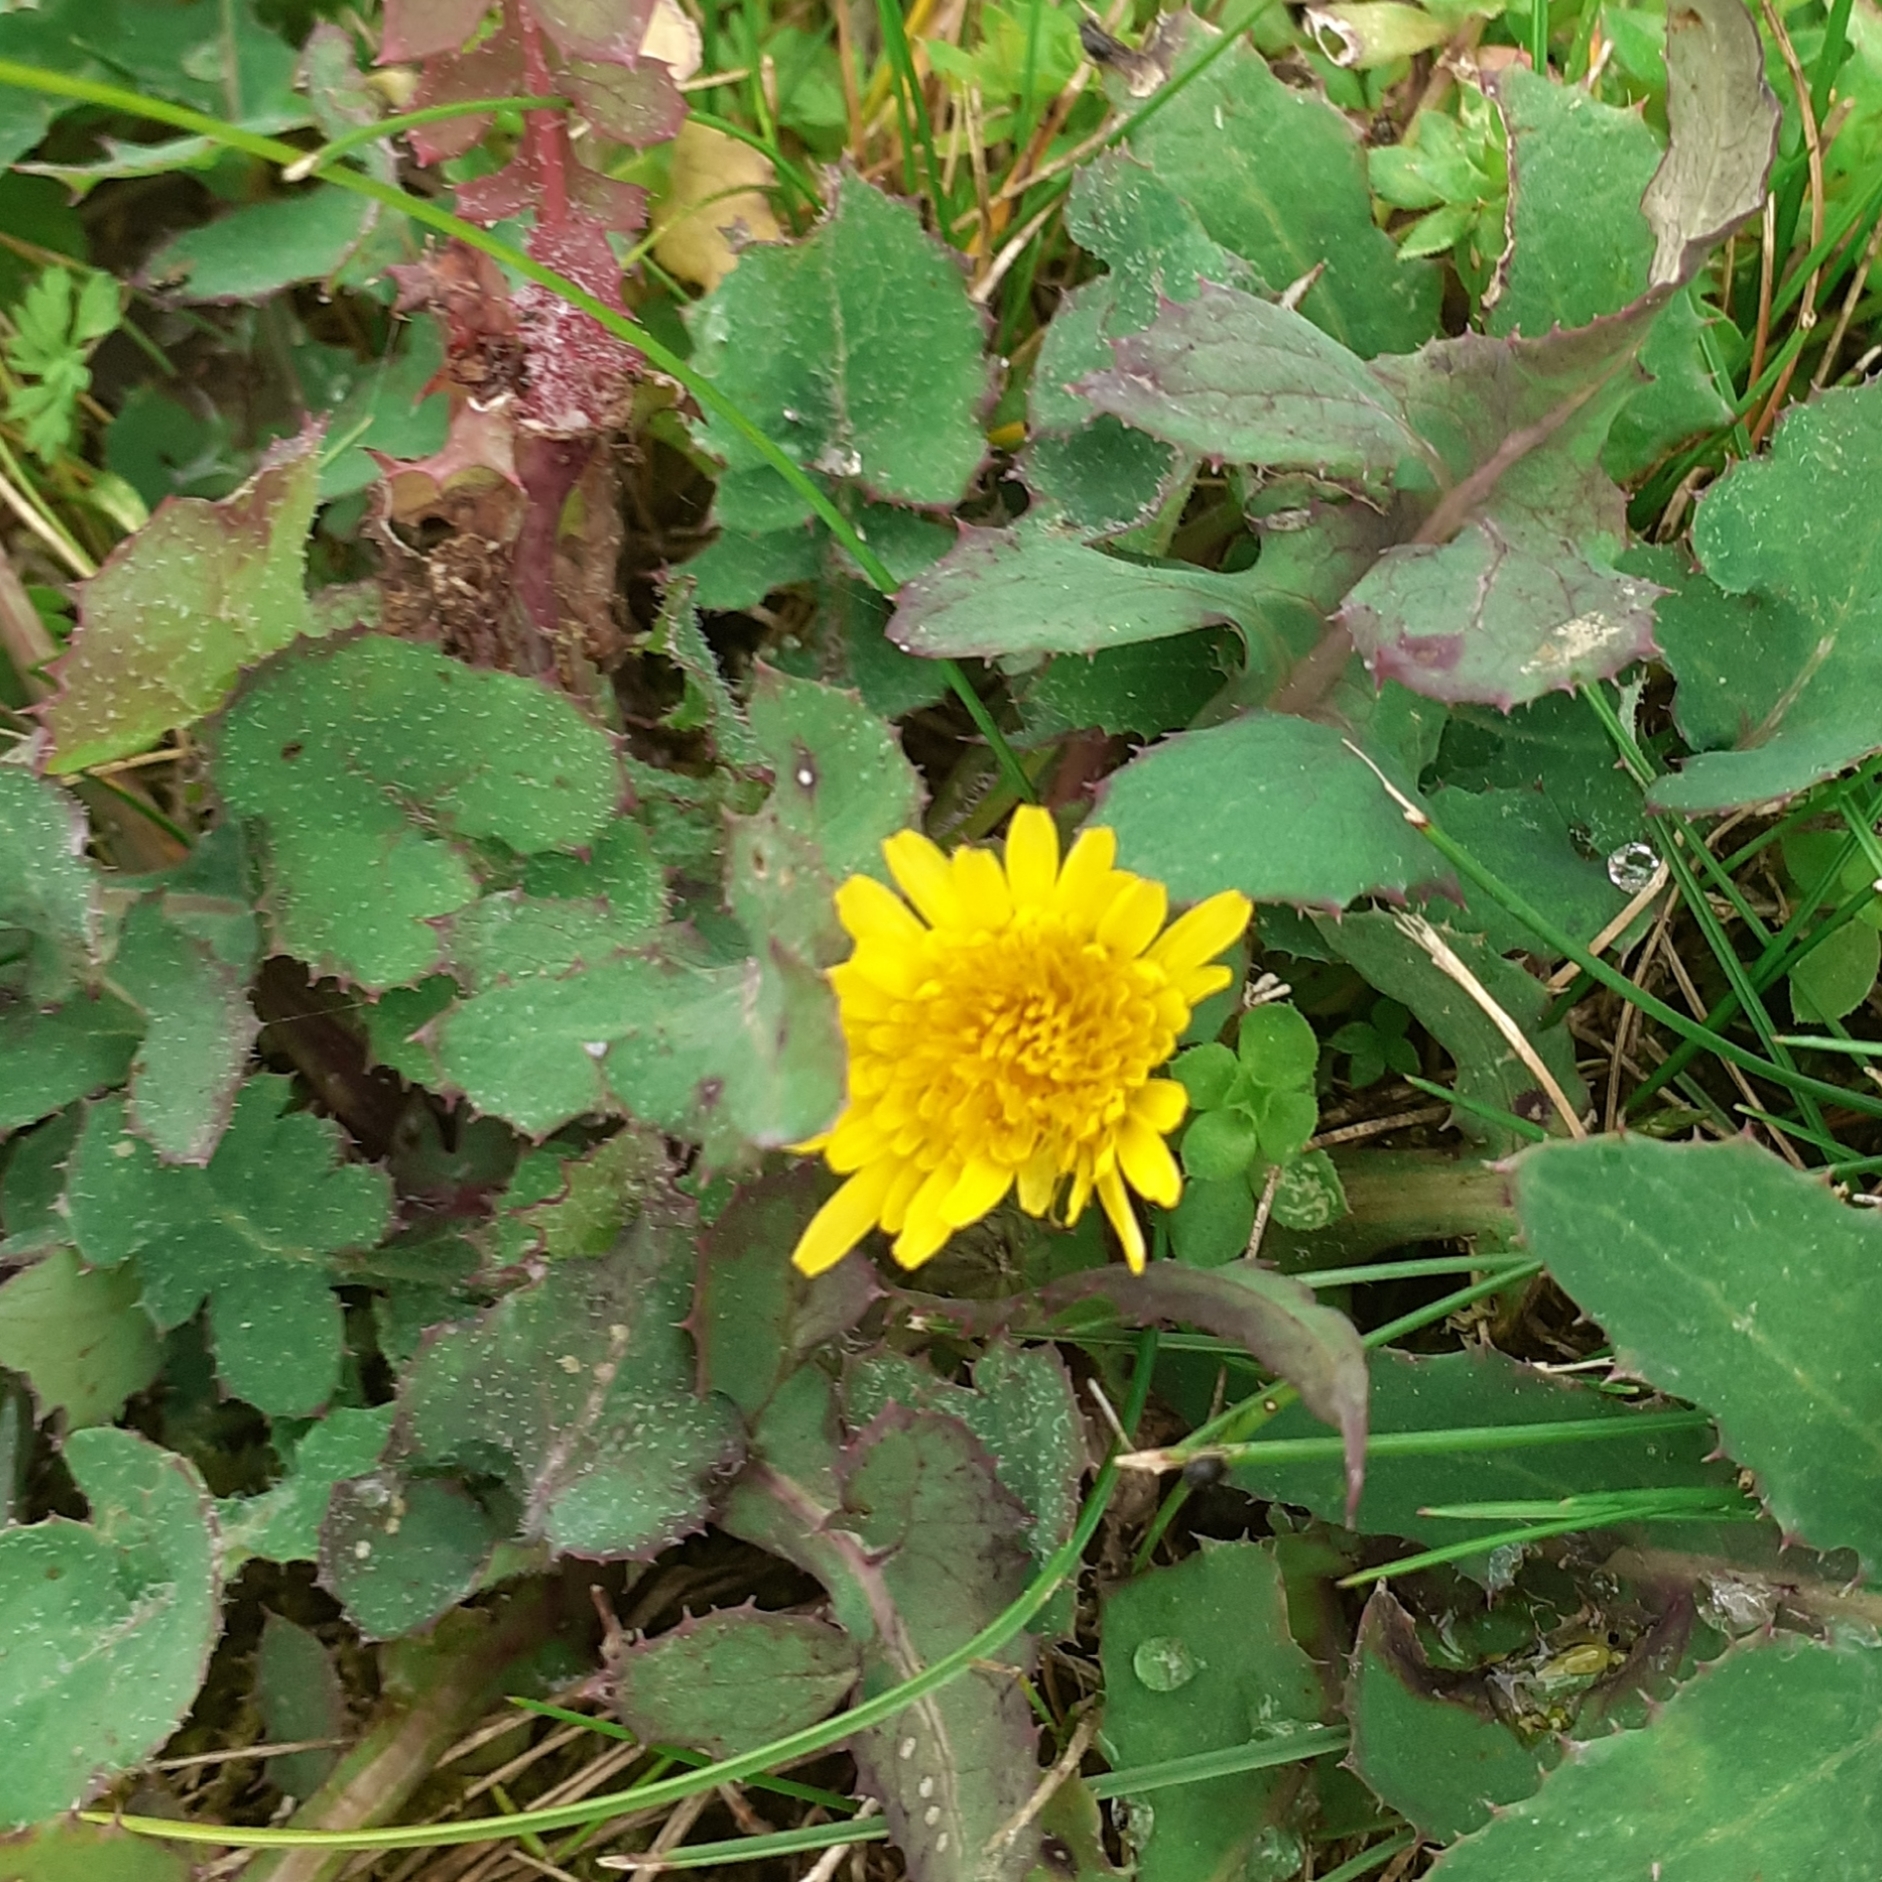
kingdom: Plantae
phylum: Tracheophyta
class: Magnoliopsida
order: Asterales
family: Asteraceae
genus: Sonchus
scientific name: Sonchus oleraceus
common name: Common sowthistle
